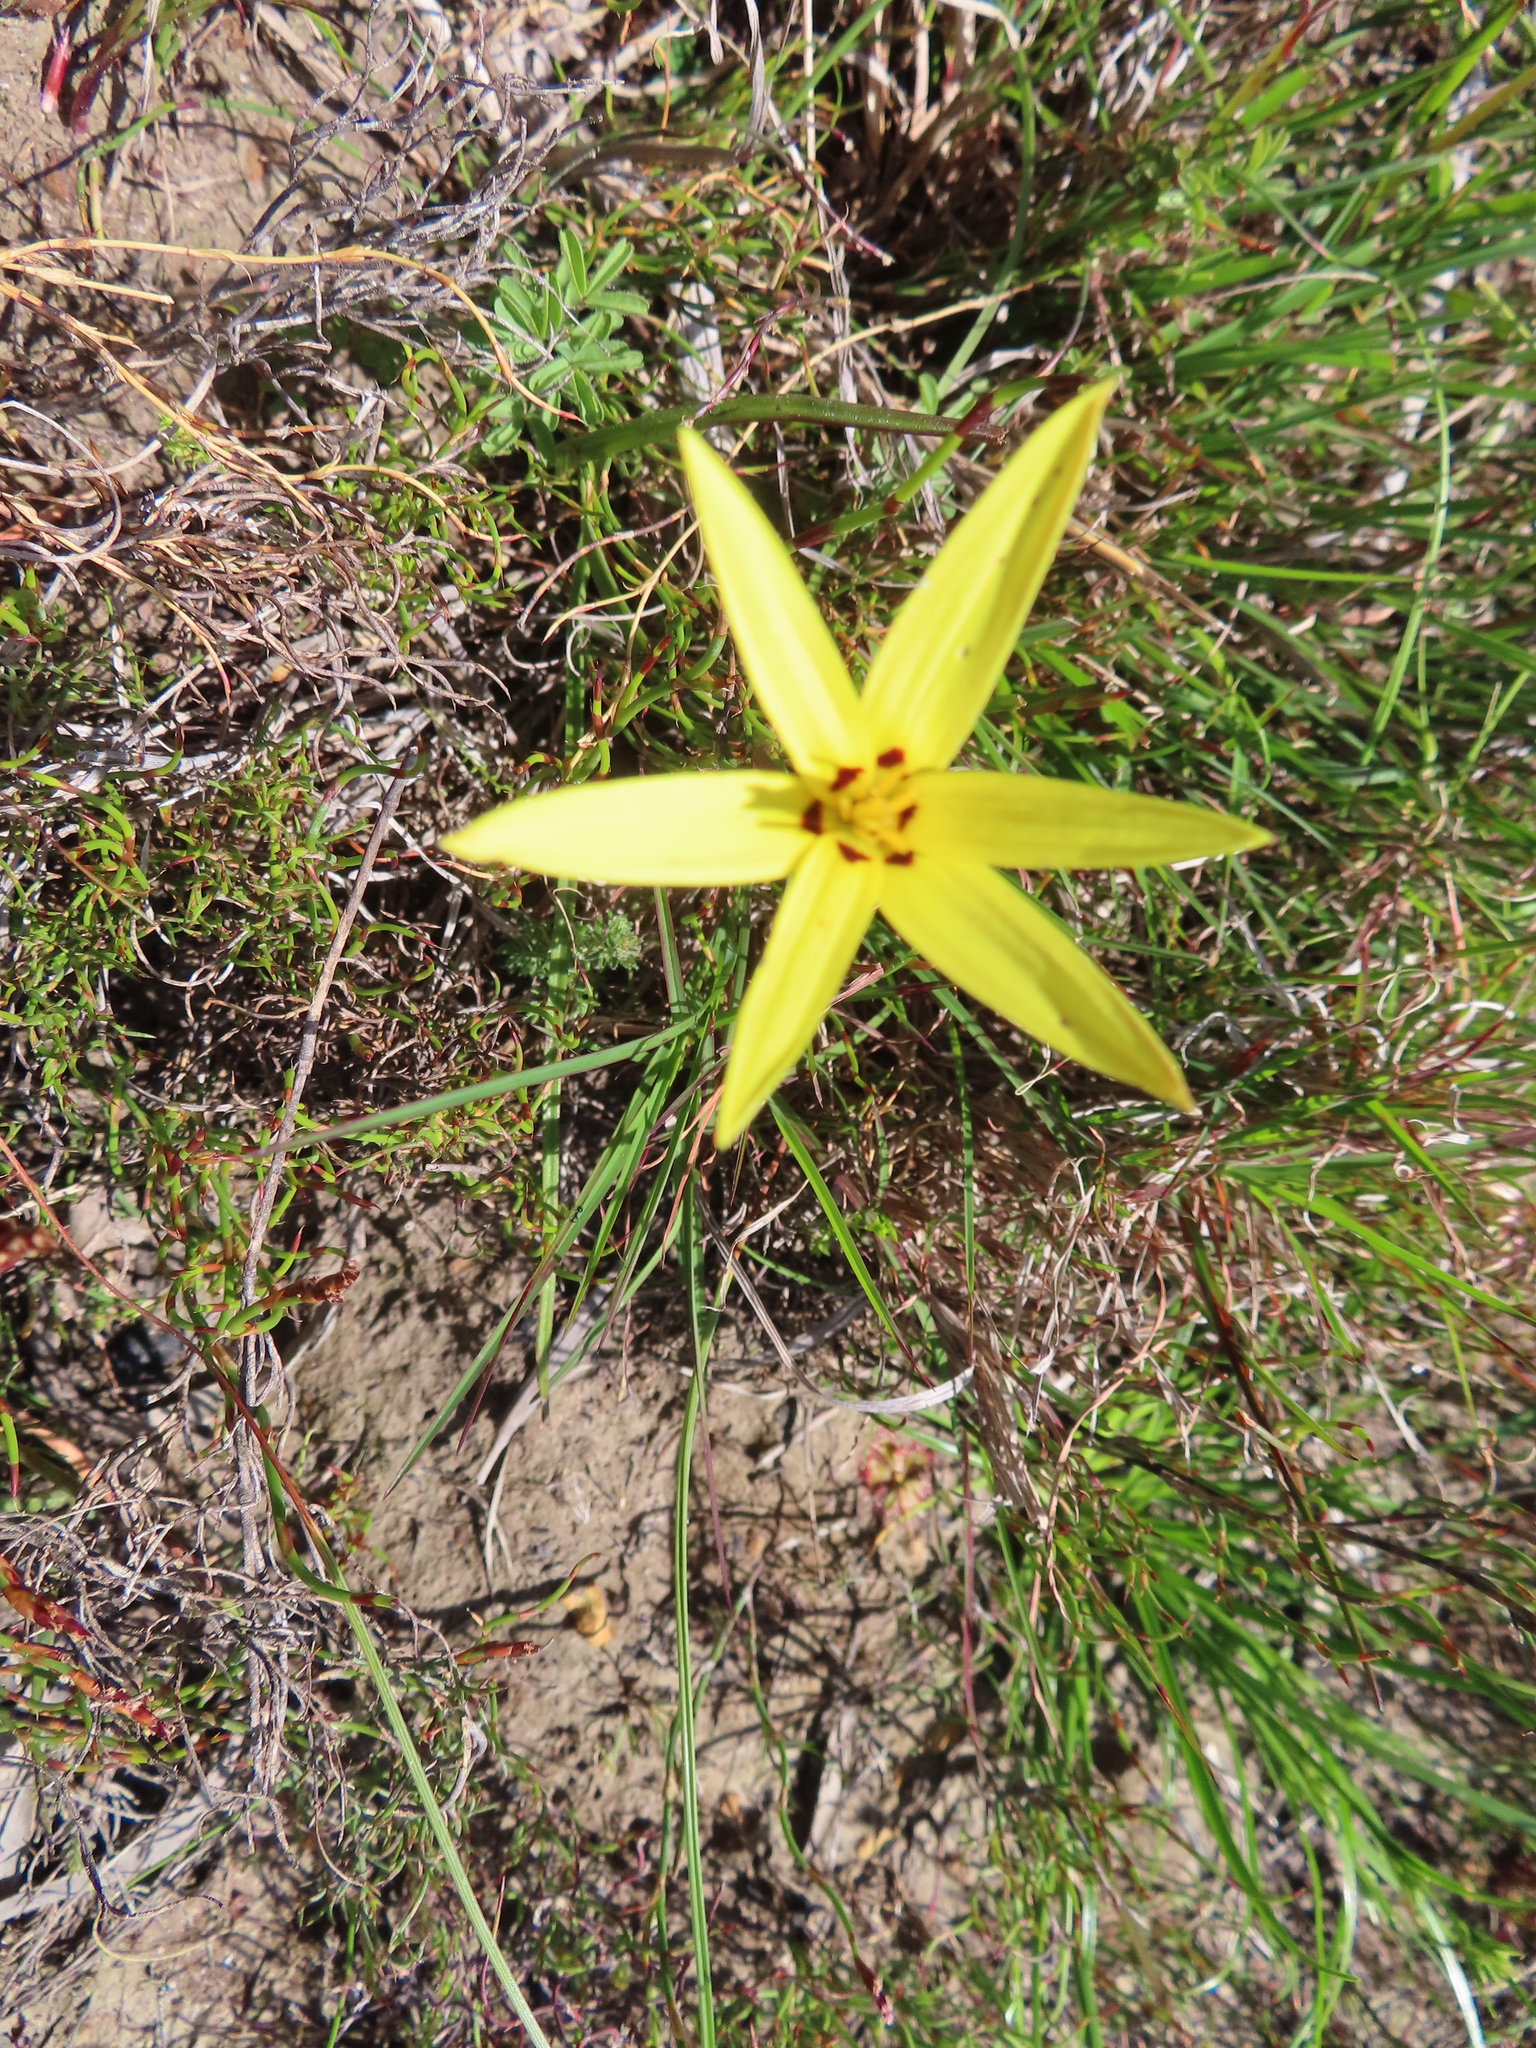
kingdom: Plantae
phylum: Tracheophyta
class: Liliopsida
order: Asparagales
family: Hypoxidaceae
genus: Pauridia
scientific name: Pauridia capensis
